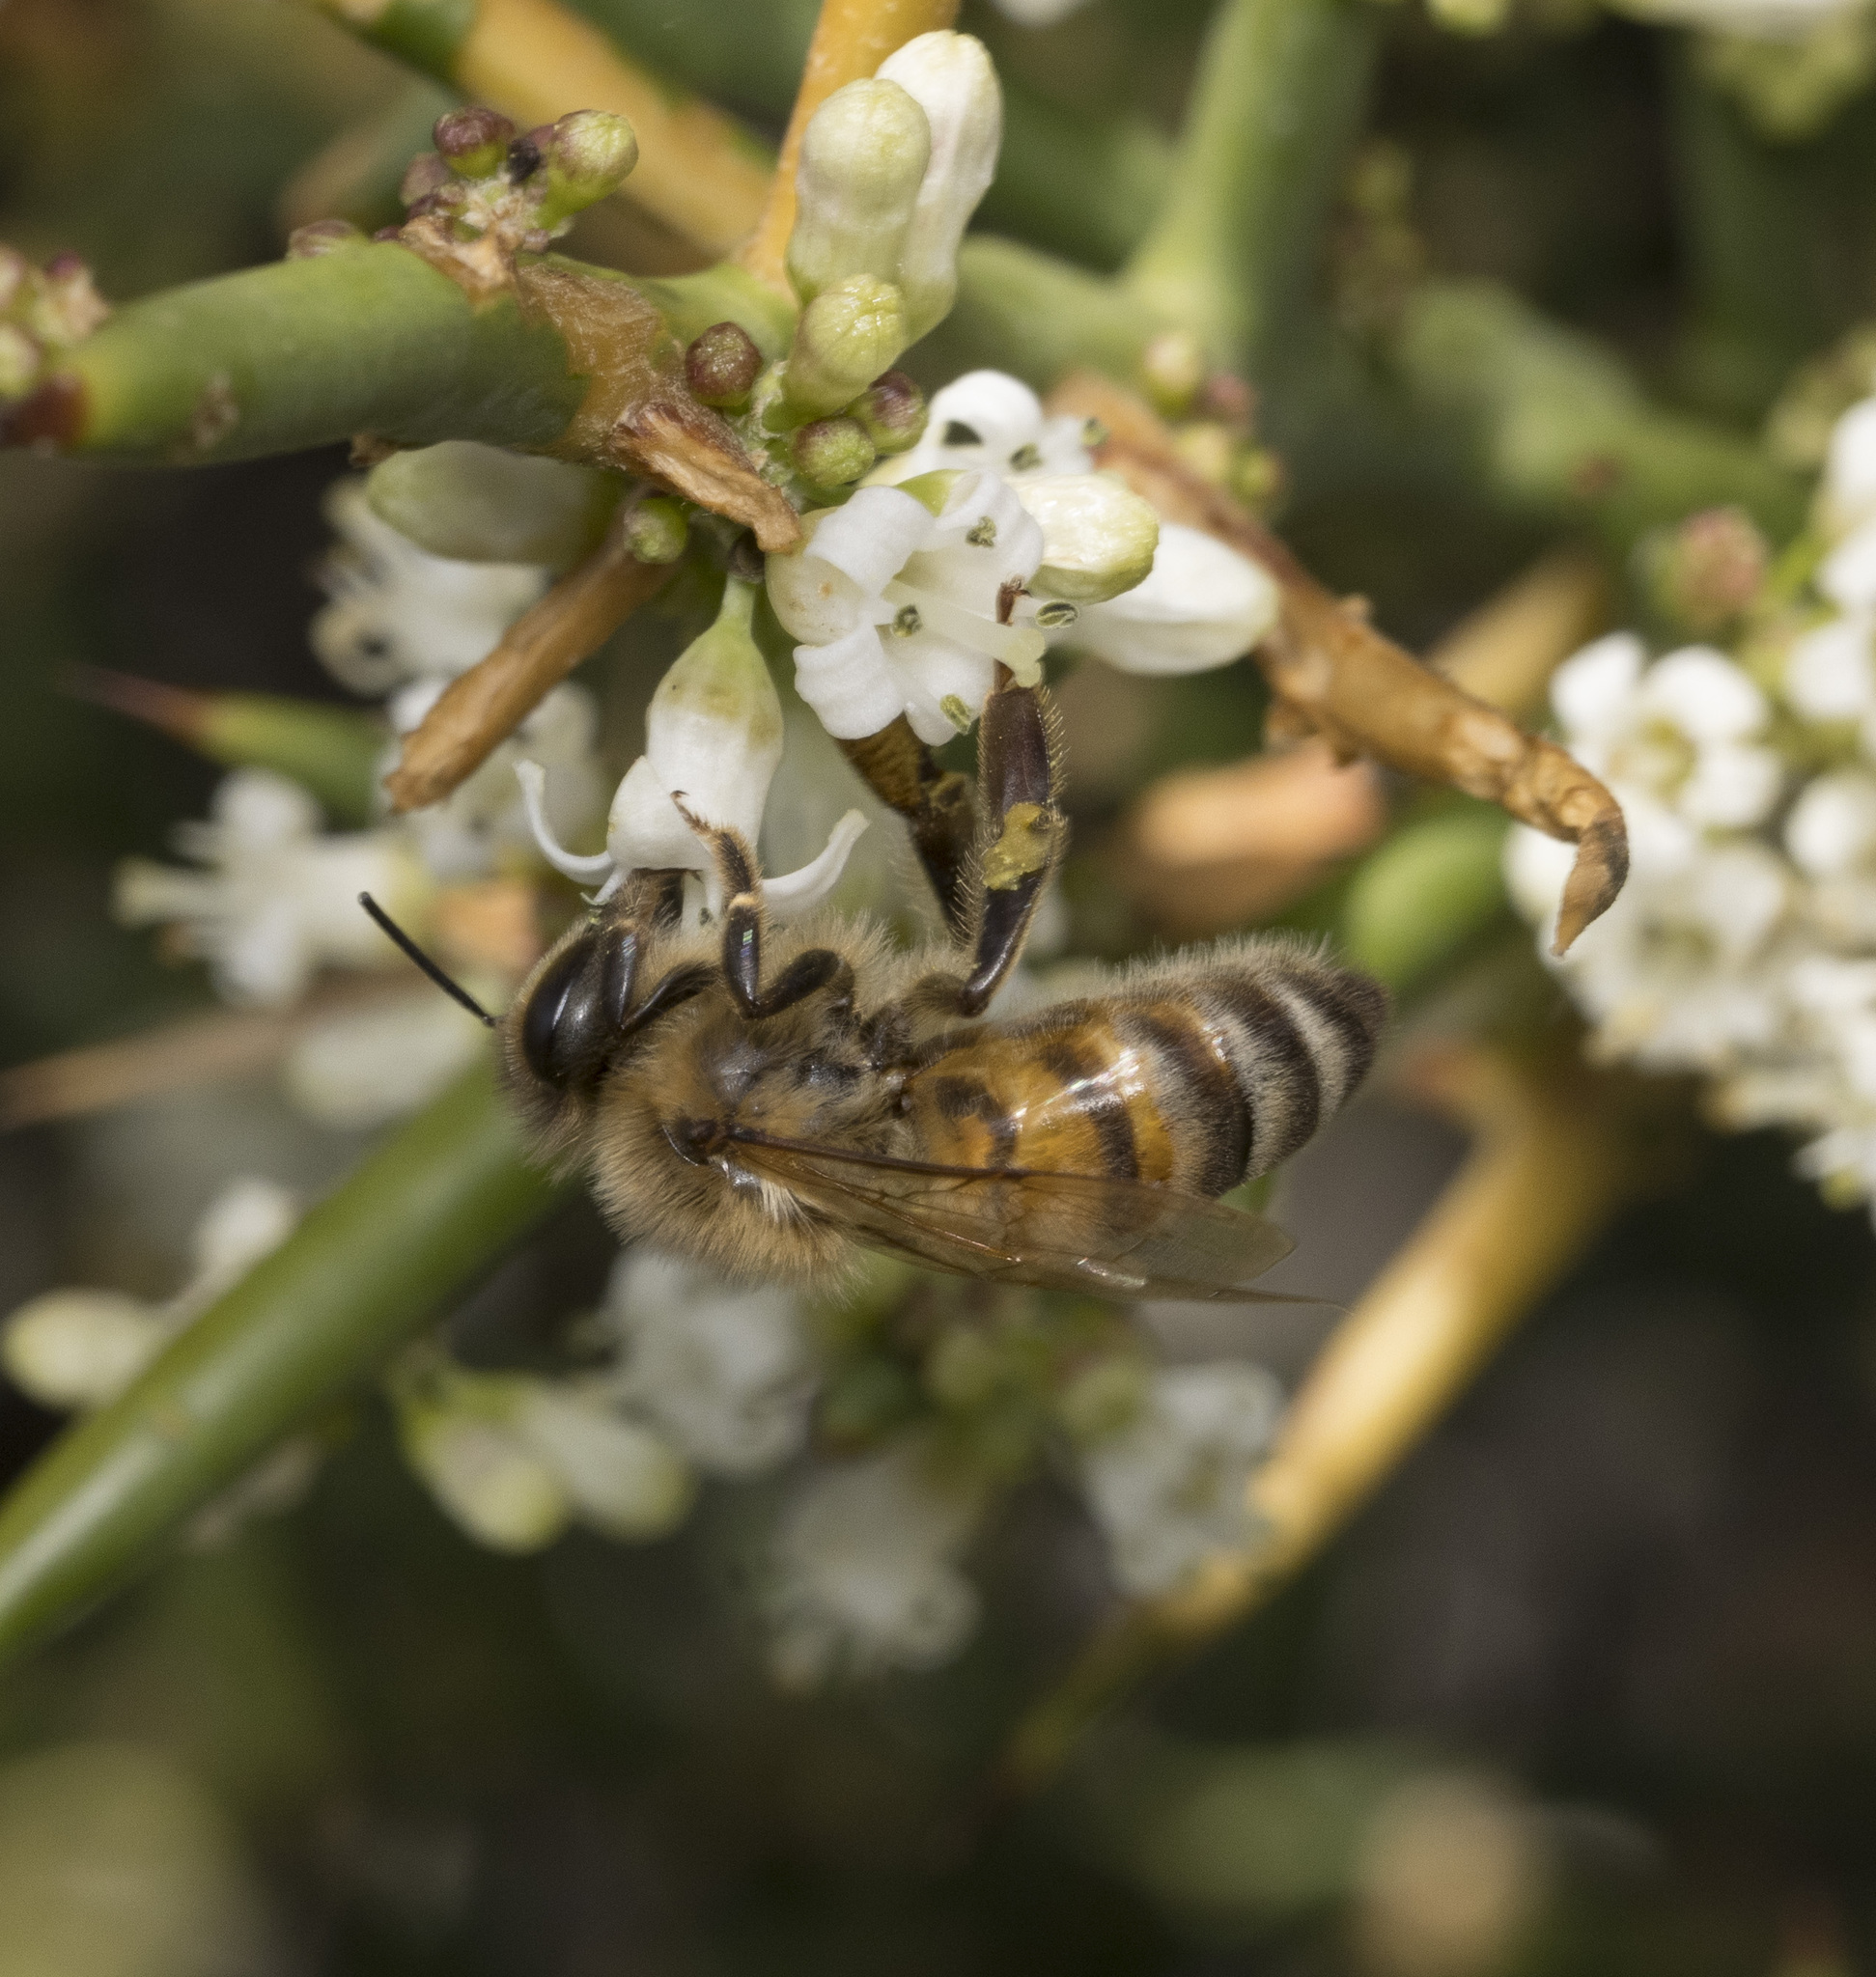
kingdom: Animalia
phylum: Arthropoda
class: Insecta
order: Hymenoptera
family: Apidae
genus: Apis
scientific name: Apis mellifera
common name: Honey bee
